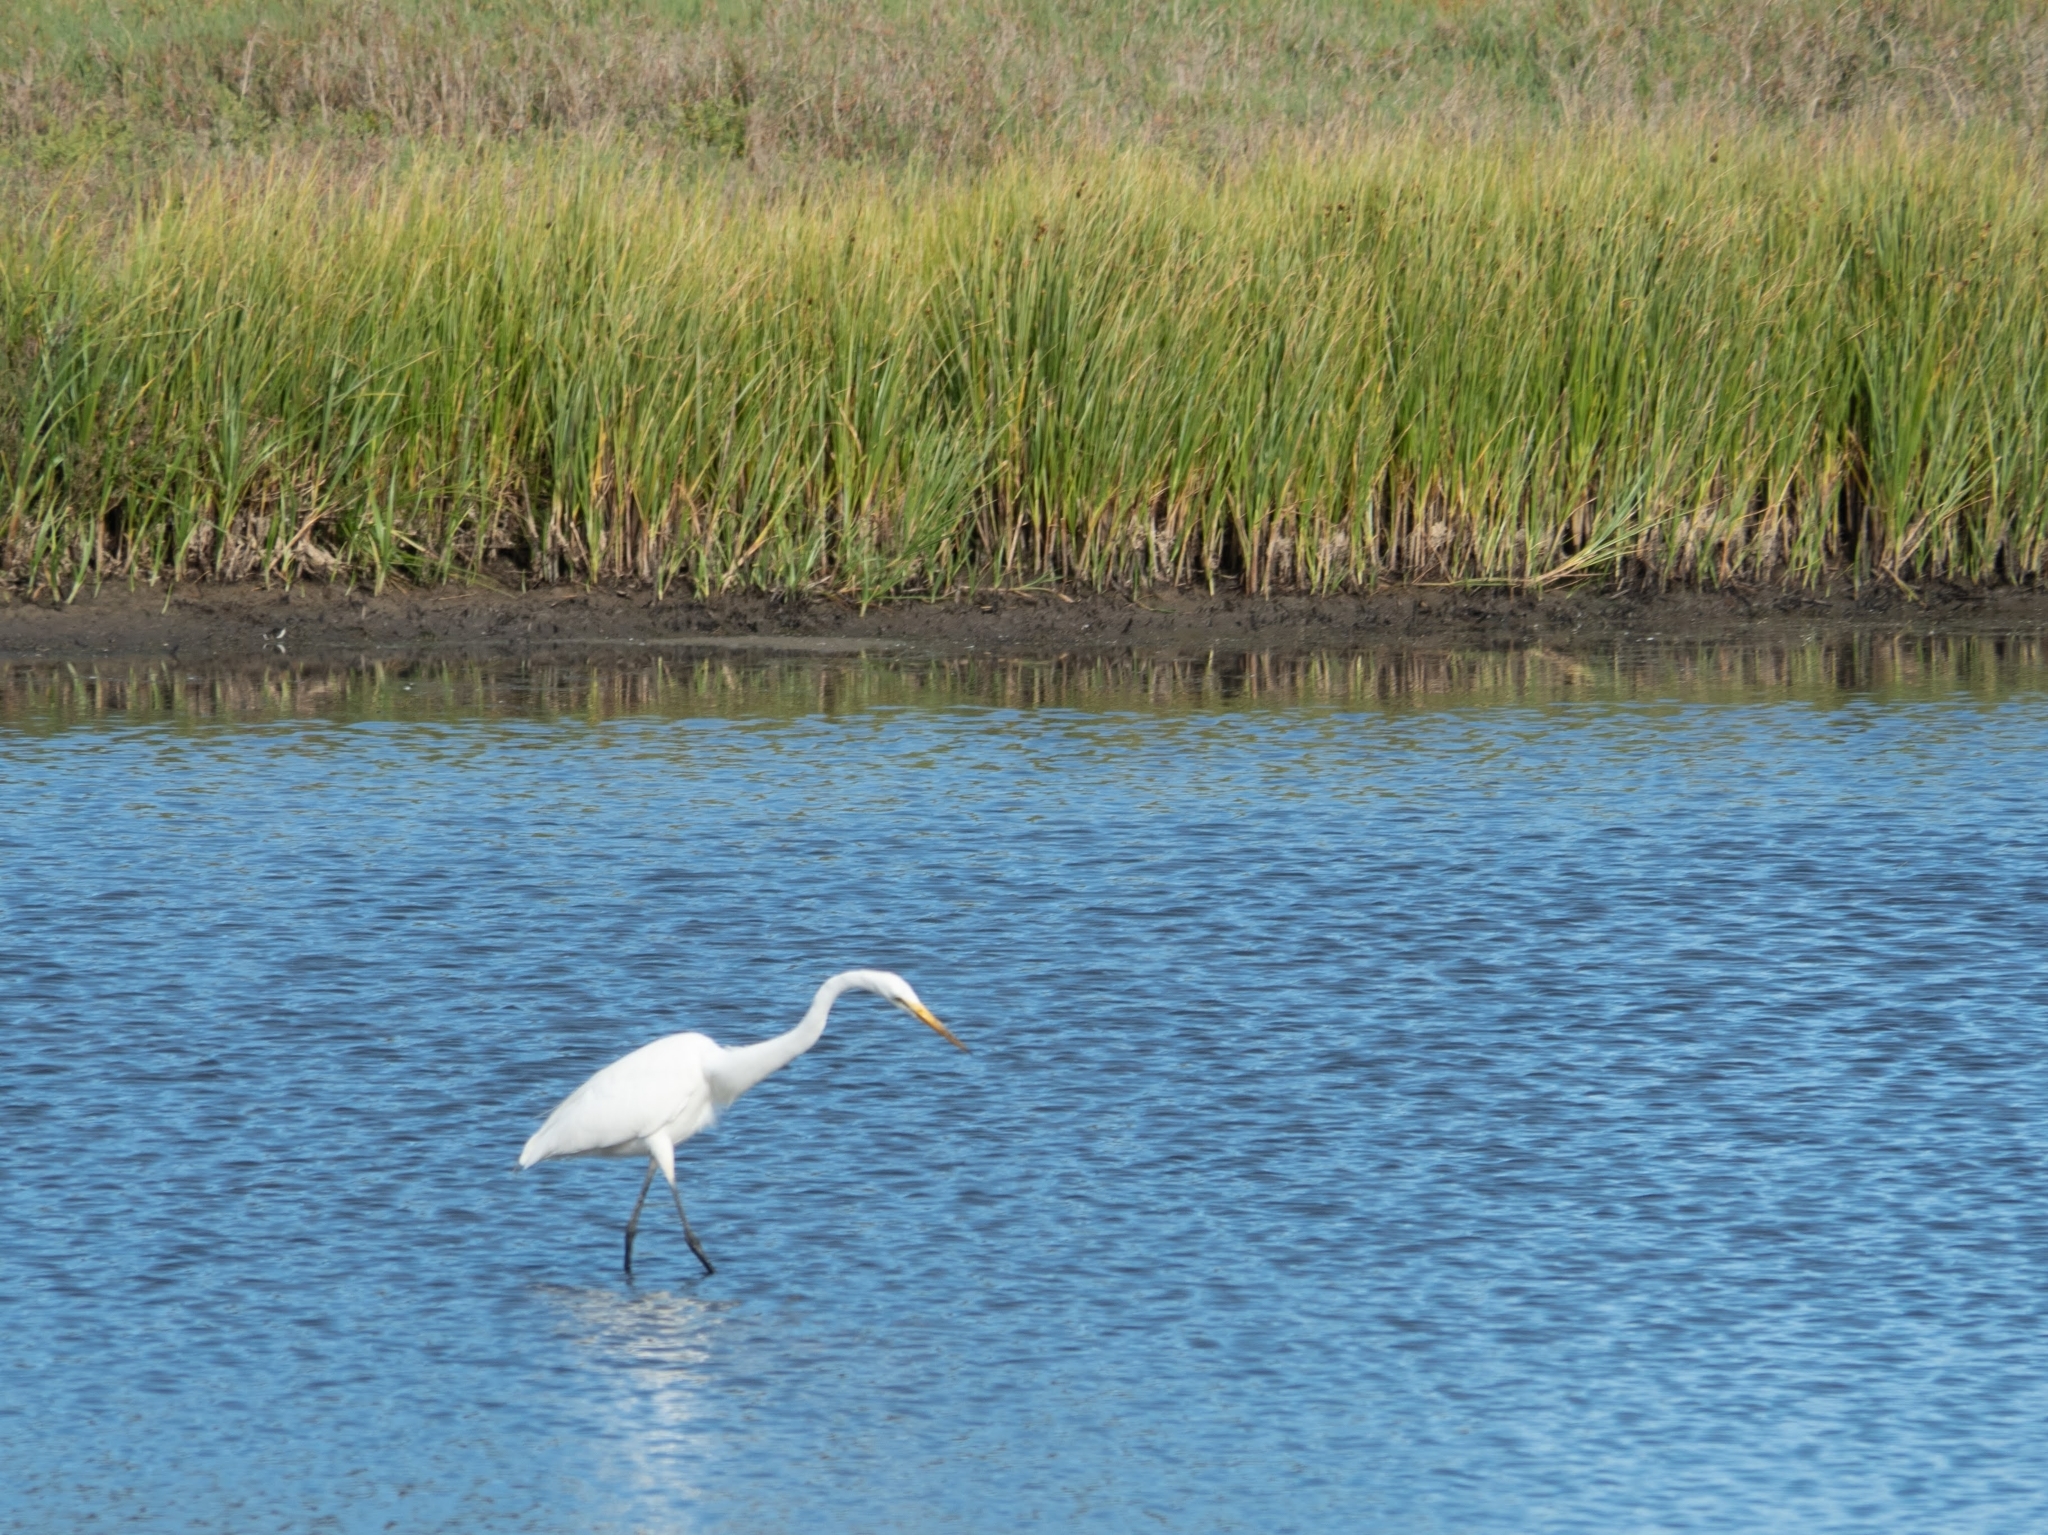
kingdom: Animalia
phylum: Chordata
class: Aves
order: Pelecaniformes
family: Ardeidae
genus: Ardea
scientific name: Ardea alba
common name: Great egret
